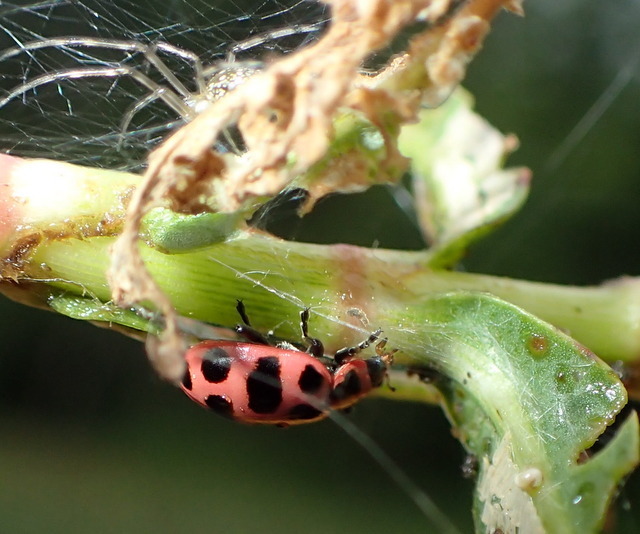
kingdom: Animalia
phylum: Arthropoda
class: Insecta
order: Coleoptera
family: Coccinellidae
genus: Coleomegilla
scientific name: Coleomegilla maculata
